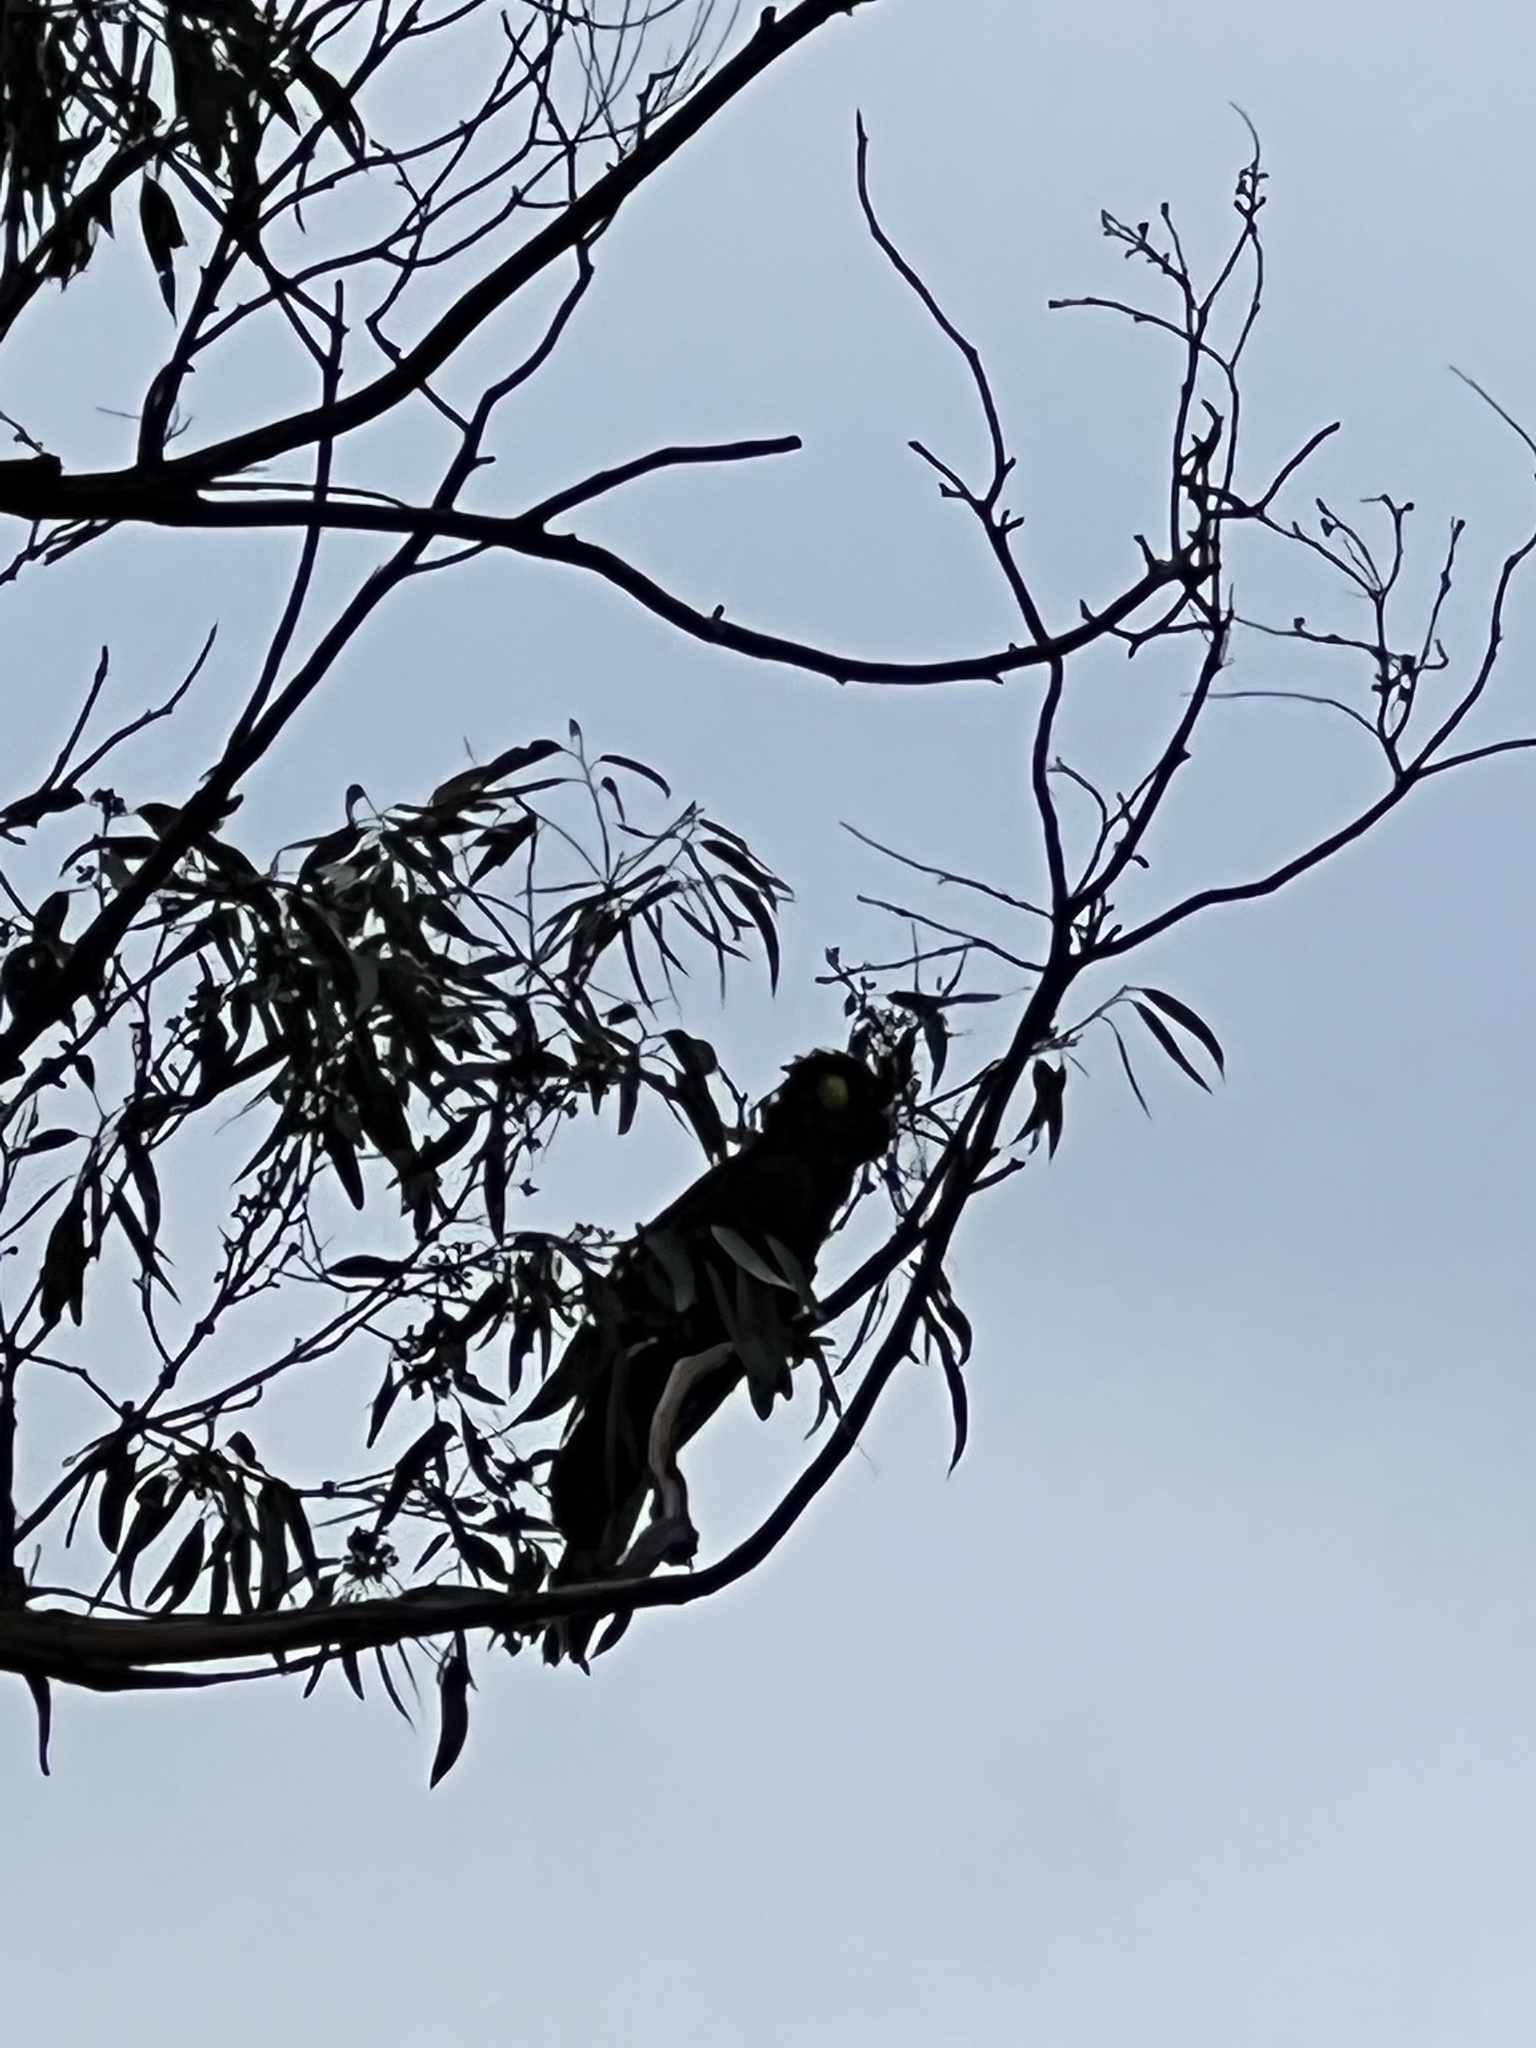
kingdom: Animalia
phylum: Chordata
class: Aves
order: Psittaciformes
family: Cacatuidae
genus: Zanda
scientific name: Zanda funerea
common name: Yellow-tailed black-cockatoo
